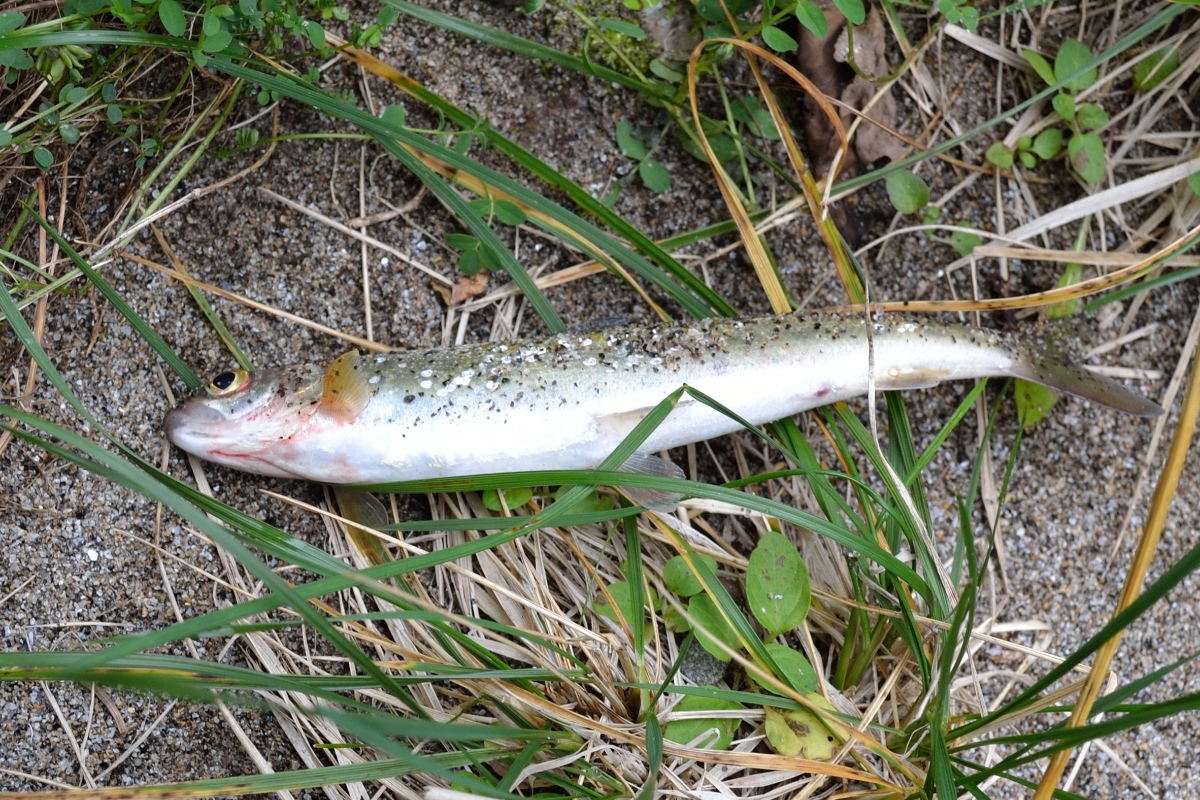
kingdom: Animalia
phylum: Chordata
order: Salmoniformes
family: Salmonidae
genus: Thymallus
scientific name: Thymallus arcticus
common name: Arctic grayling
